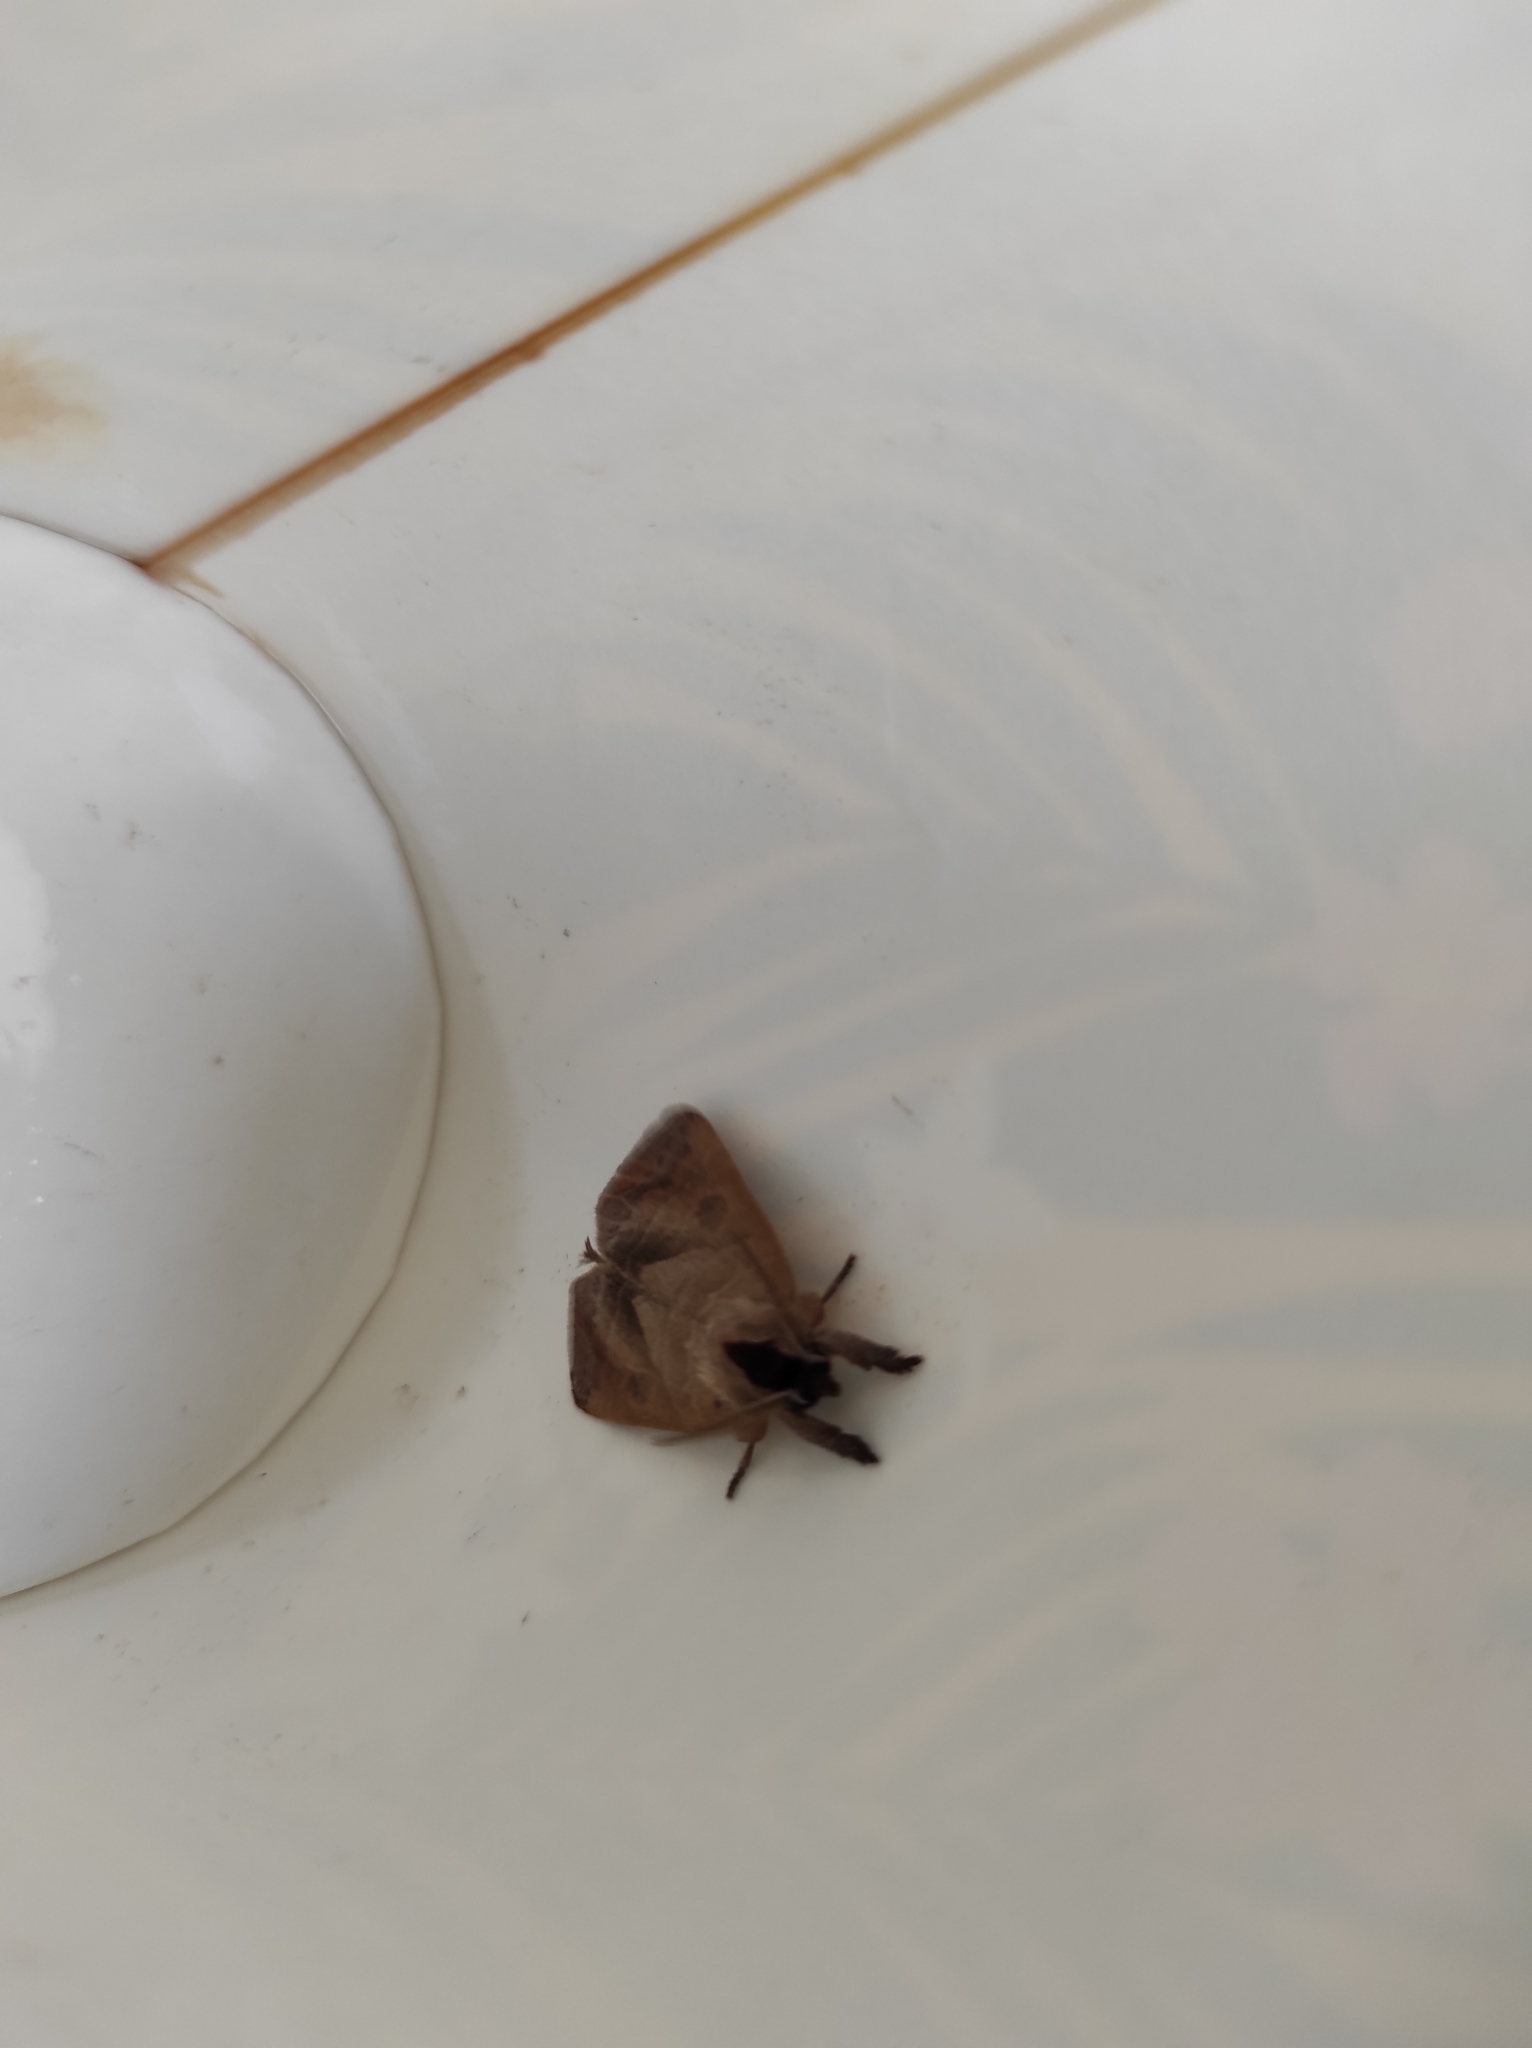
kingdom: Animalia
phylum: Arthropoda
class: Insecta
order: Lepidoptera
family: Notodontidae
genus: Clostera
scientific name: Clostera anastomosis
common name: Poplar tip moth
